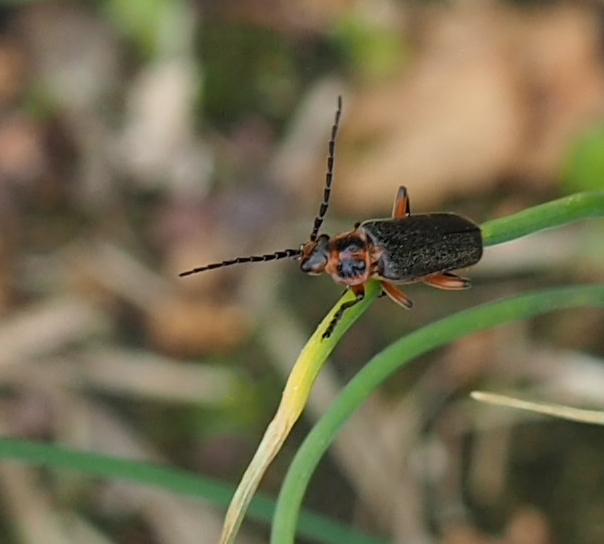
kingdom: Animalia
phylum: Arthropoda
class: Insecta
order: Coleoptera
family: Cantharidae
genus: Atalantycha
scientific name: Atalantycha bilineata
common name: Two-lined leatherwing
